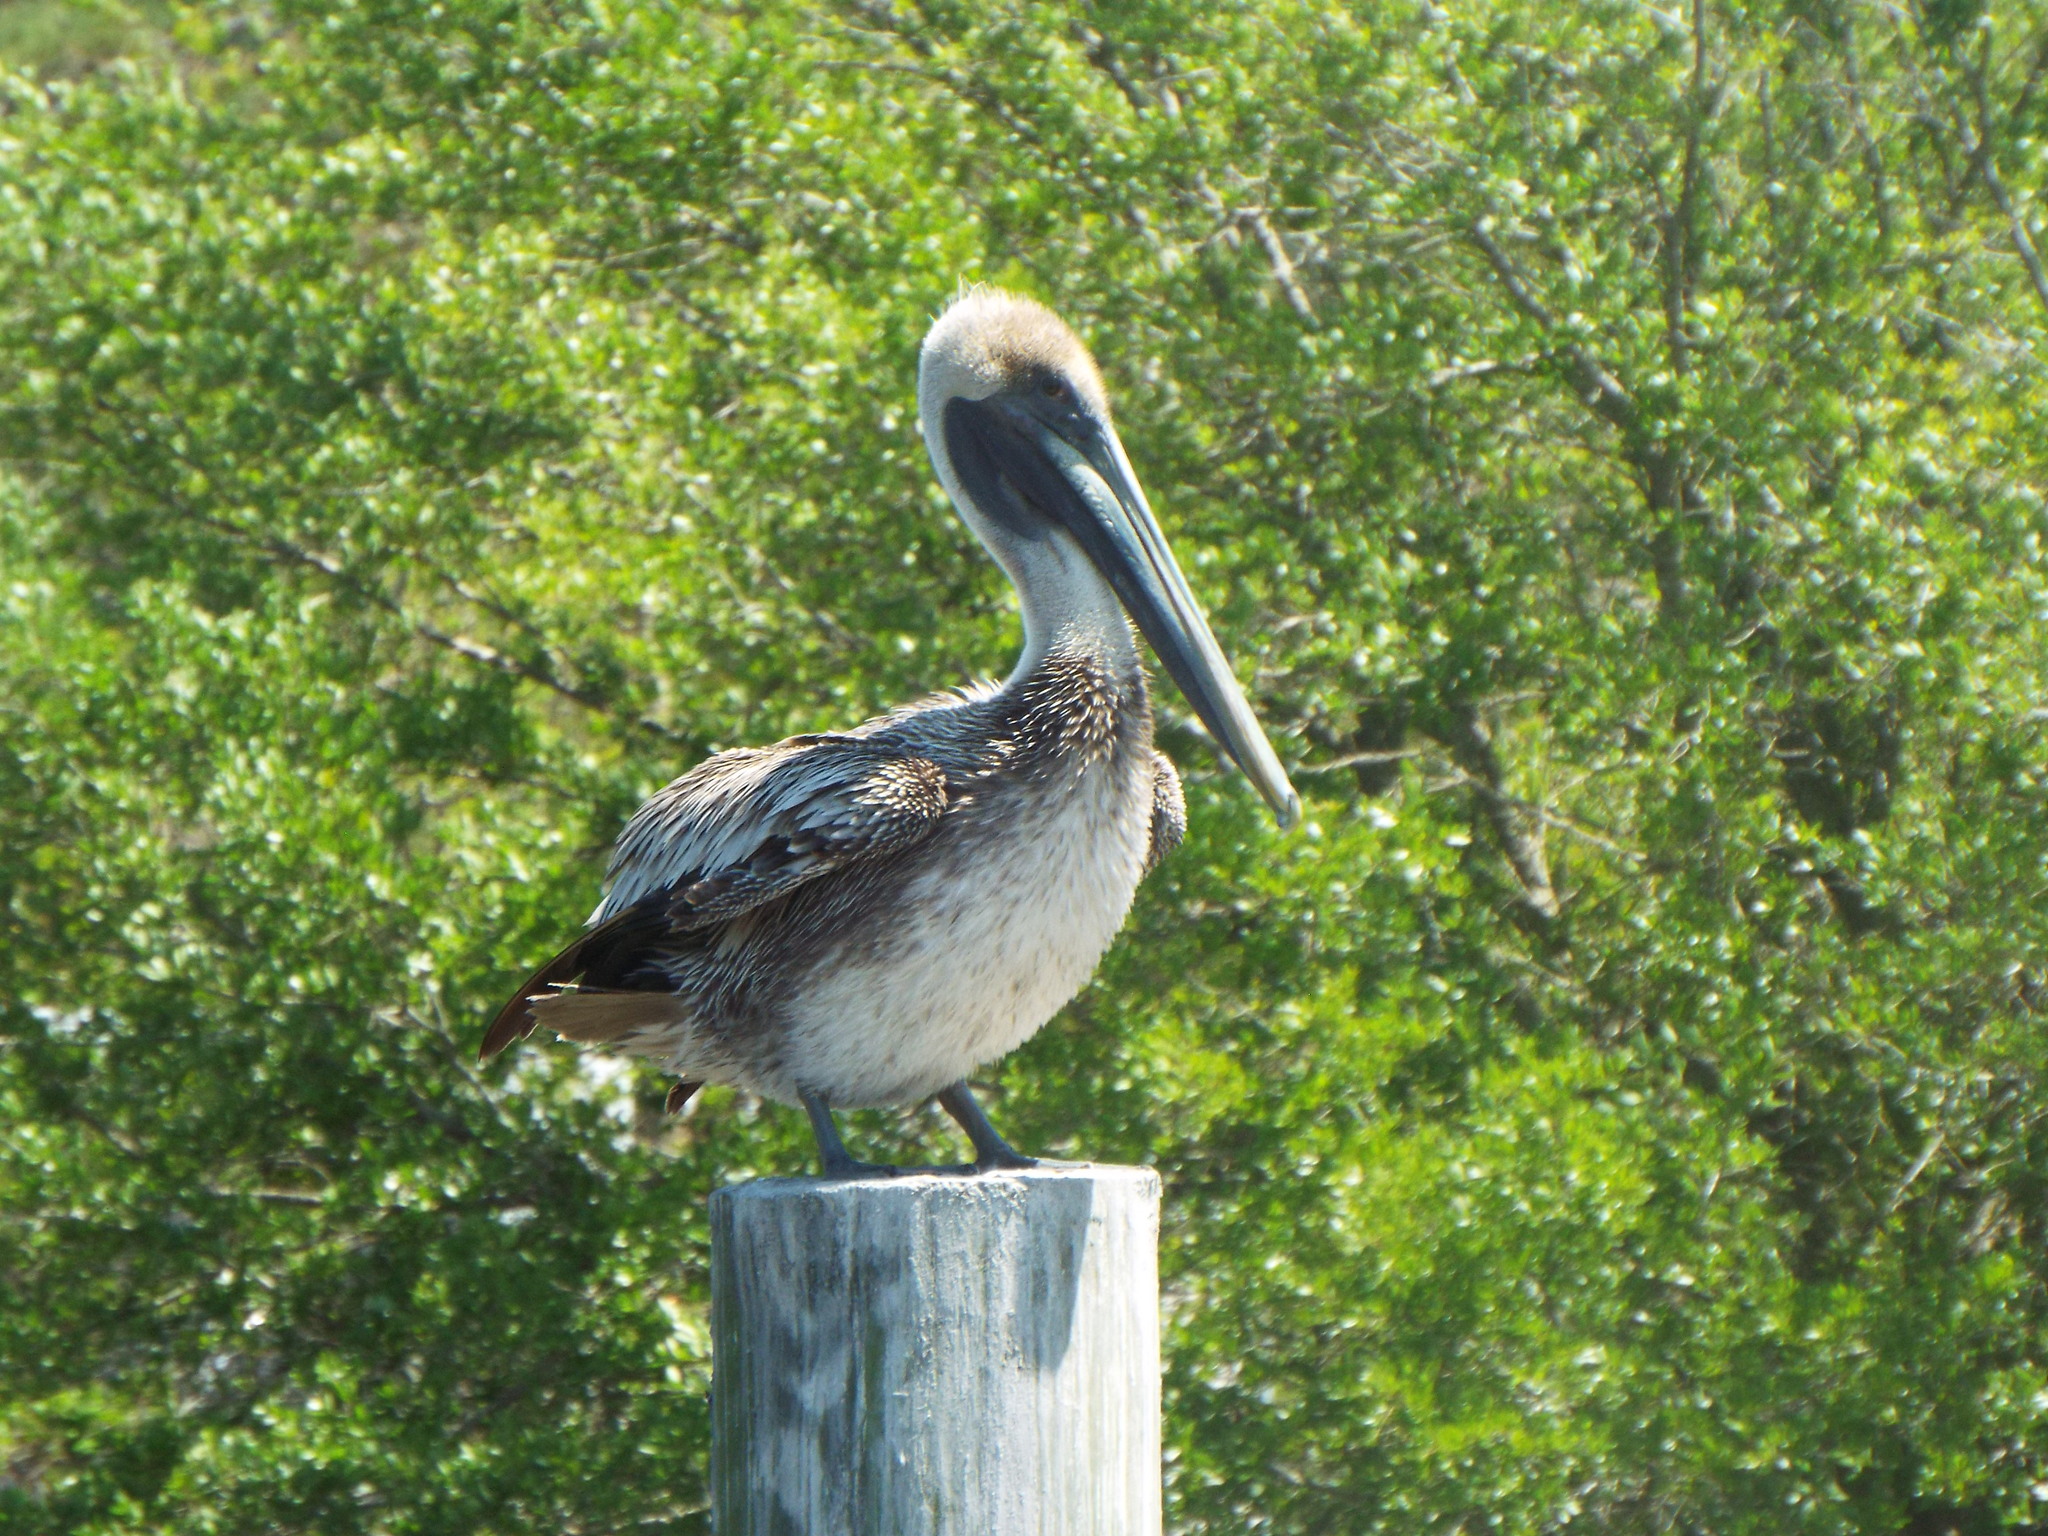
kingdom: Animalia
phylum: Chordata
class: Aves
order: Pelecaniformes
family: Pelecanidae
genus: Pelecanus
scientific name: Pelecanus occidentalis
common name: Brown pelican
